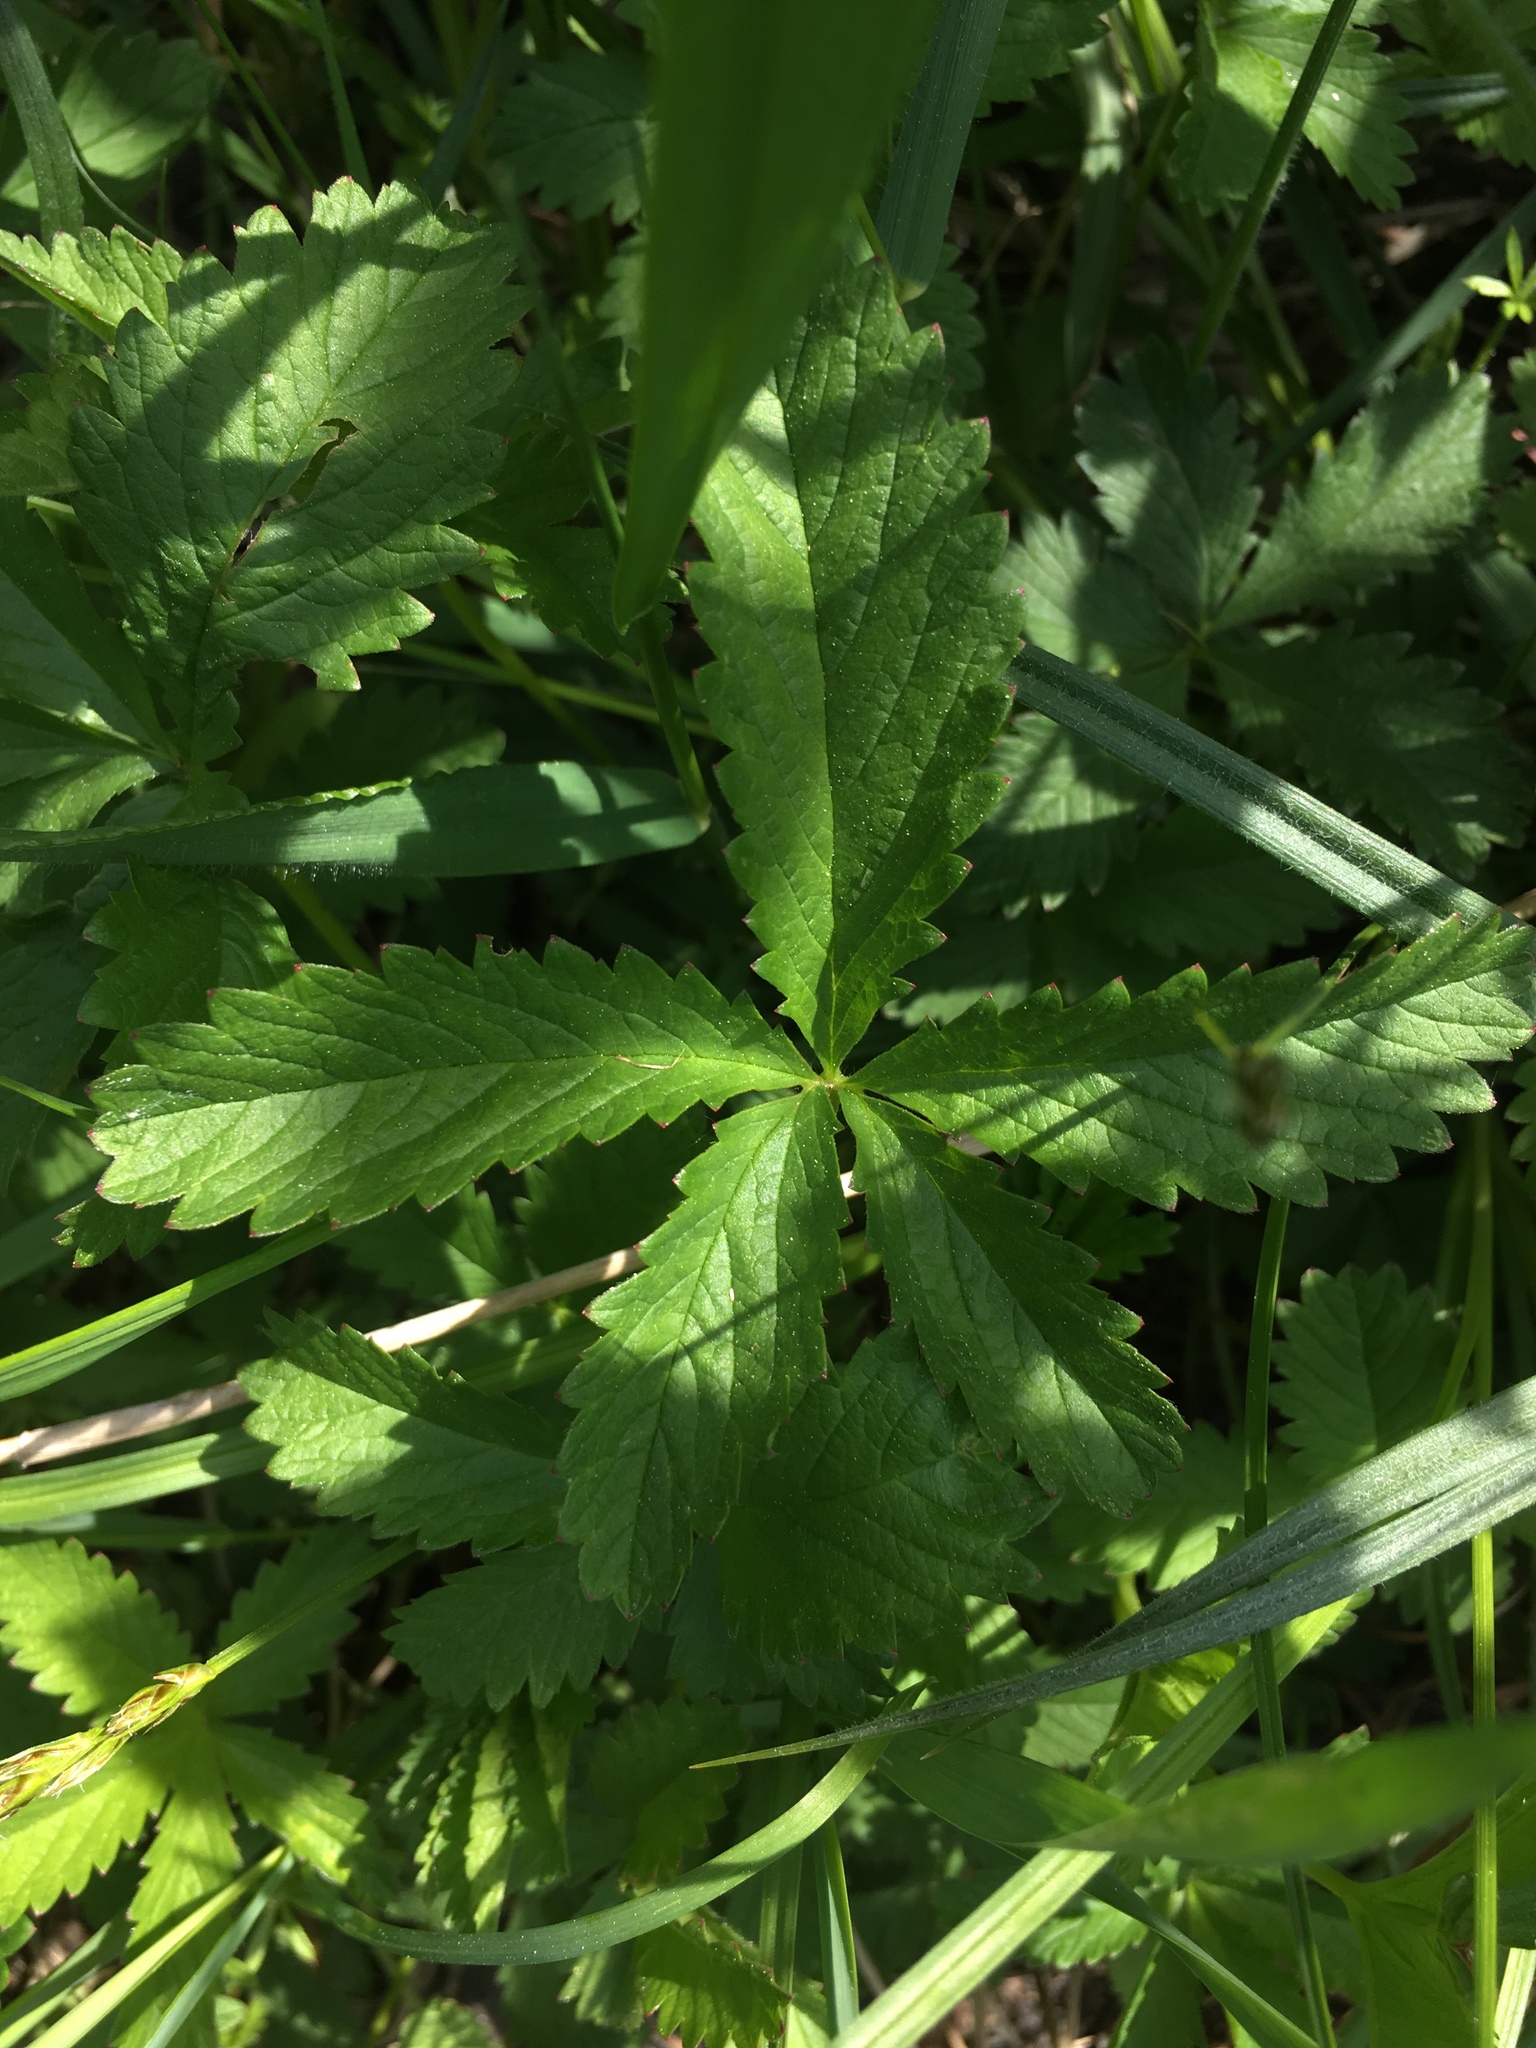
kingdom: Plantae
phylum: Tracheophyta
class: Magnoliopsida
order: Rosales
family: Rosaceae
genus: Potentilla
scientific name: Potentilla reptans
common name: Creeping cinquefoil
